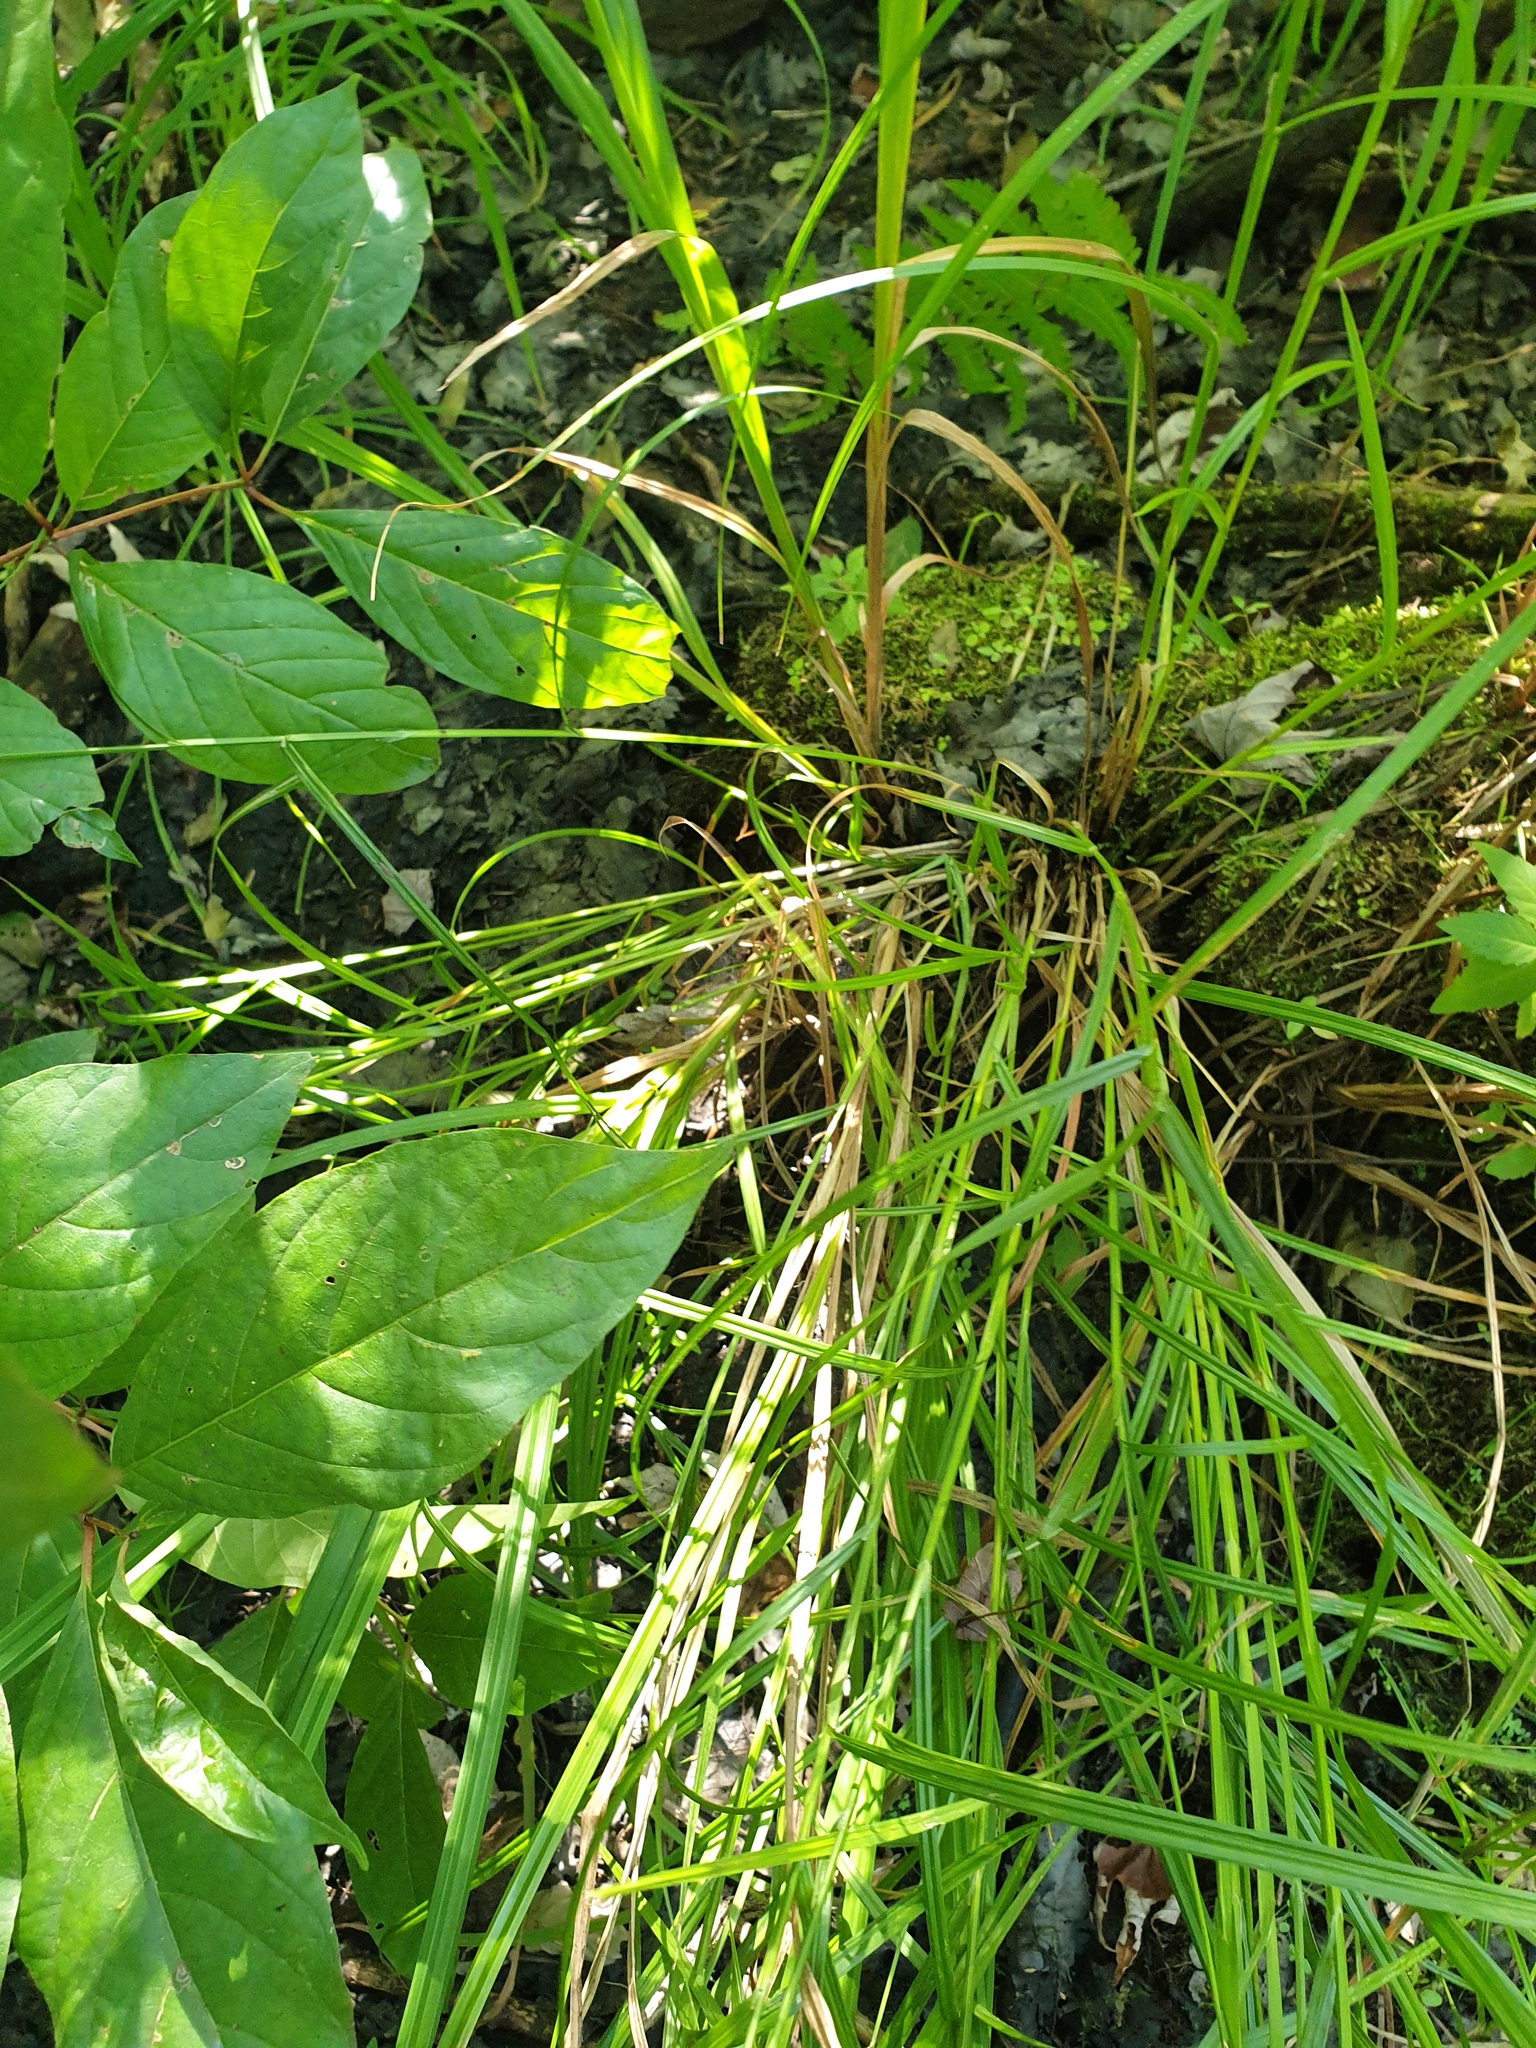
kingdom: Plantae
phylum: Tracheophyta
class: Liliopsida
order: Poales
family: Cyperaceae
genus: Carex
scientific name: Carex tribuloides
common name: Blunt broom sedge
